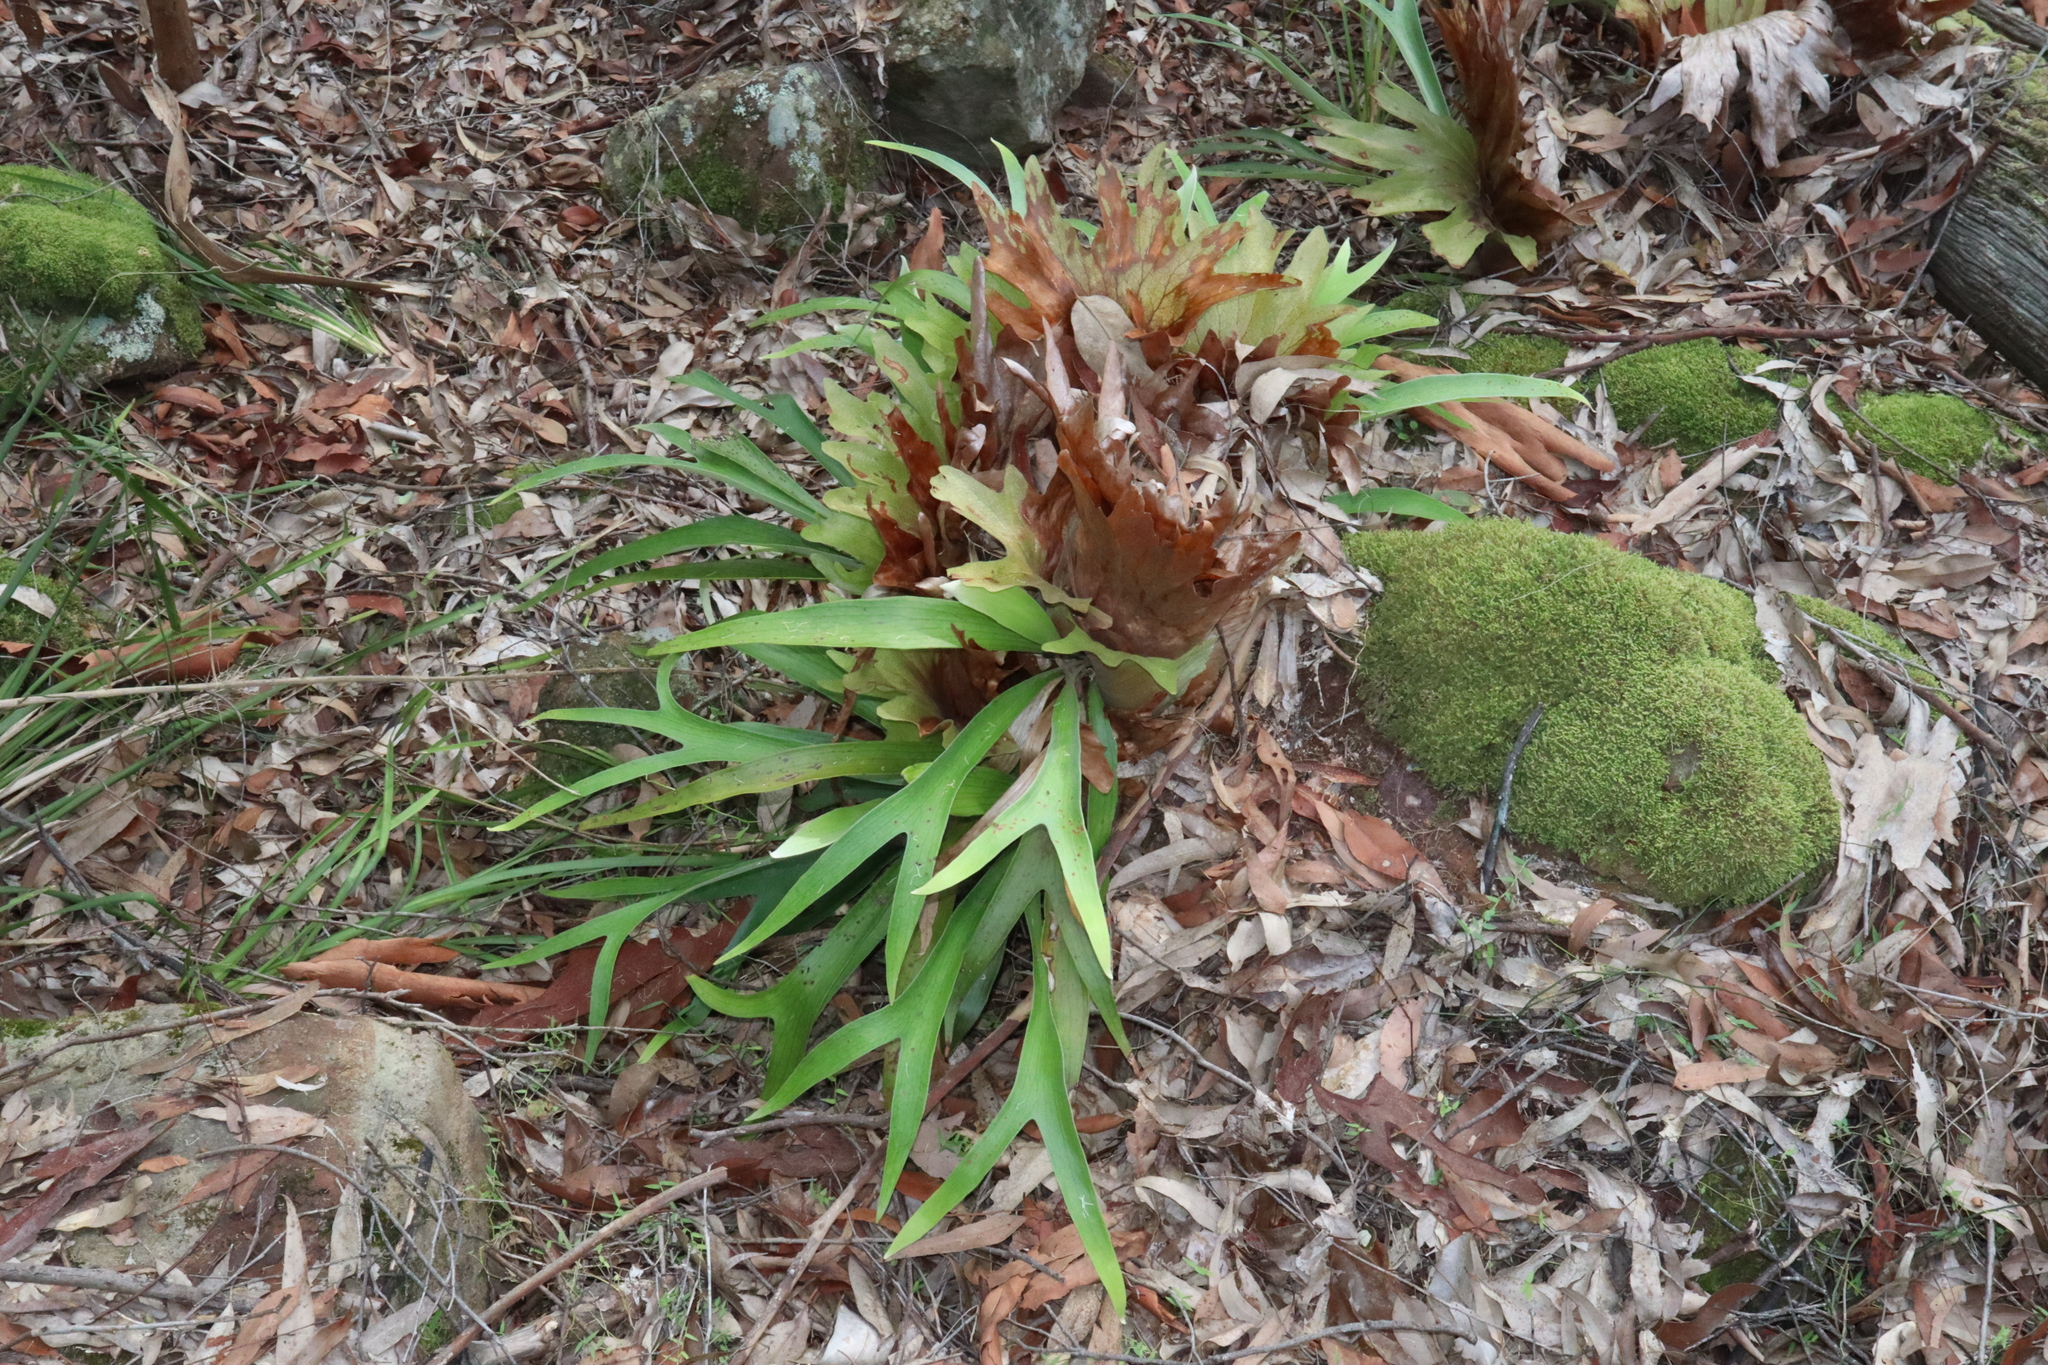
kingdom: Plantae
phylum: Tracheophyta
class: Polypodiopsida
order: Polypodiales
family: Polypodiaceae
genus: Platycerium
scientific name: Platycerium bifurcatum
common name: Elkhorn fern
